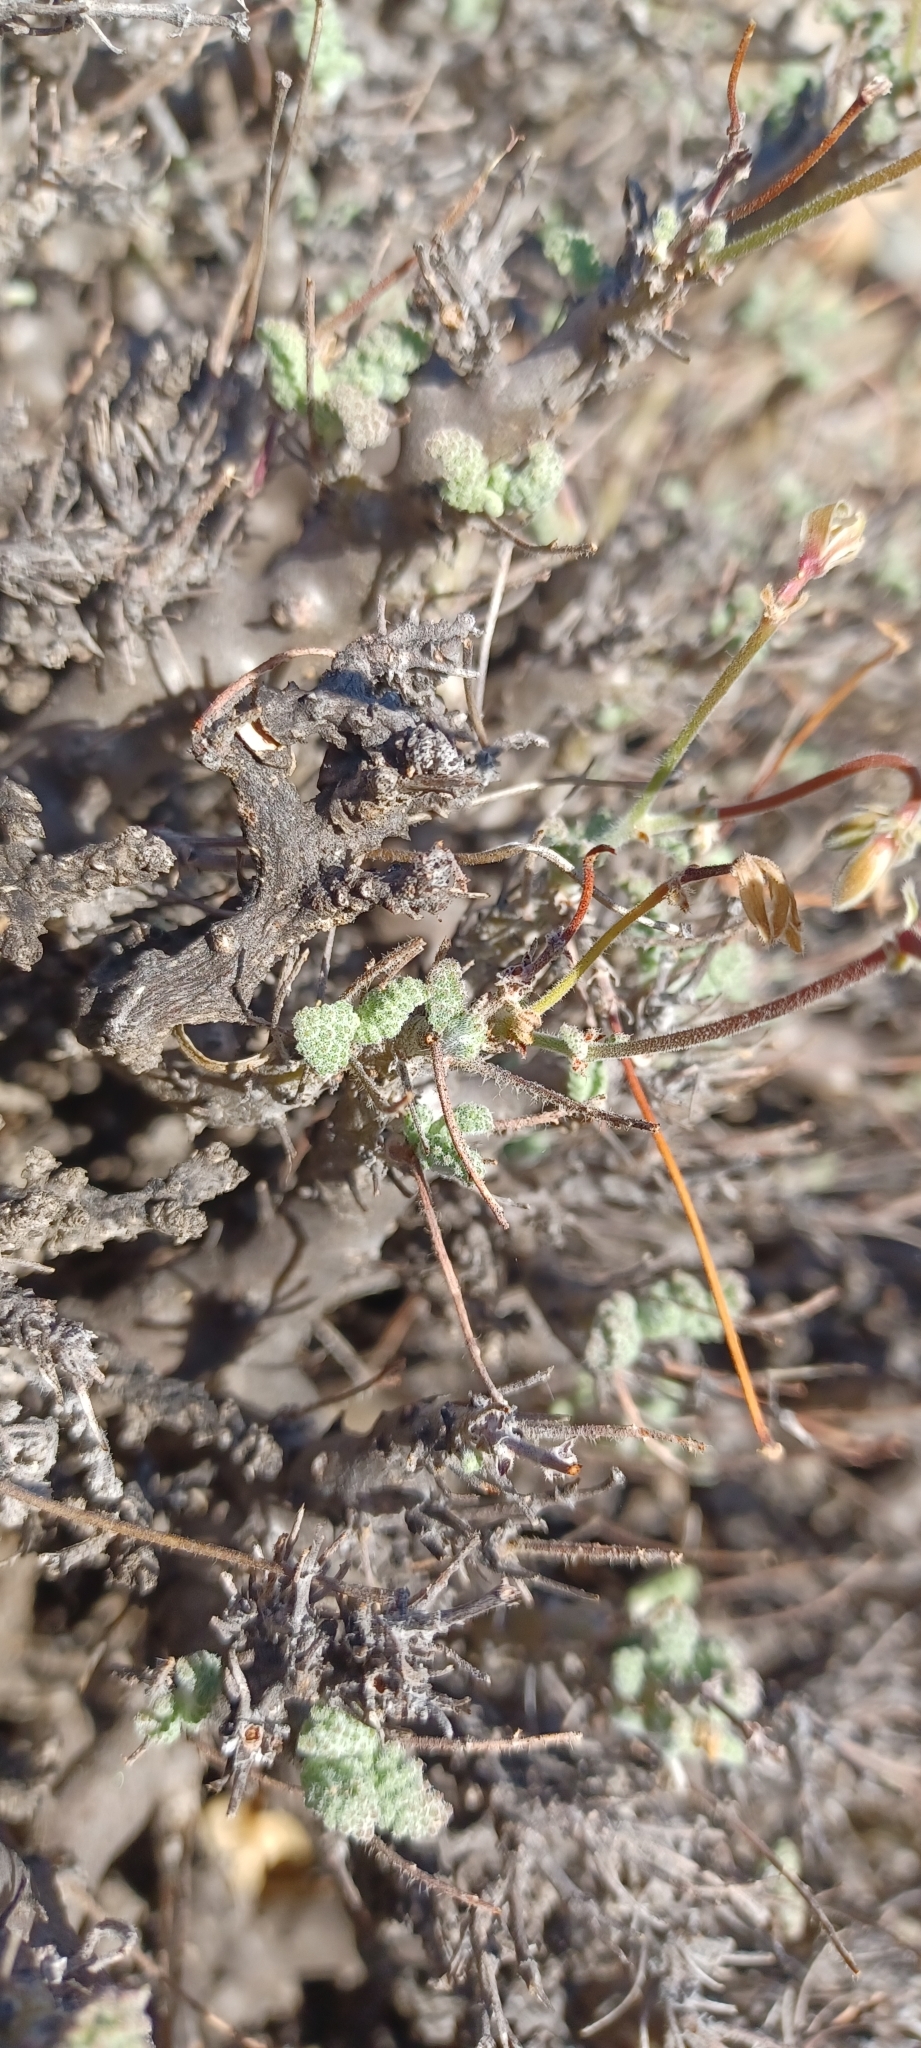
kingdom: Plantae
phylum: Tracheophyta
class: Magnoliopsida
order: Geraniales
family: Geraniaceae
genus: Pelargonium
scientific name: Pelargonium alternans
